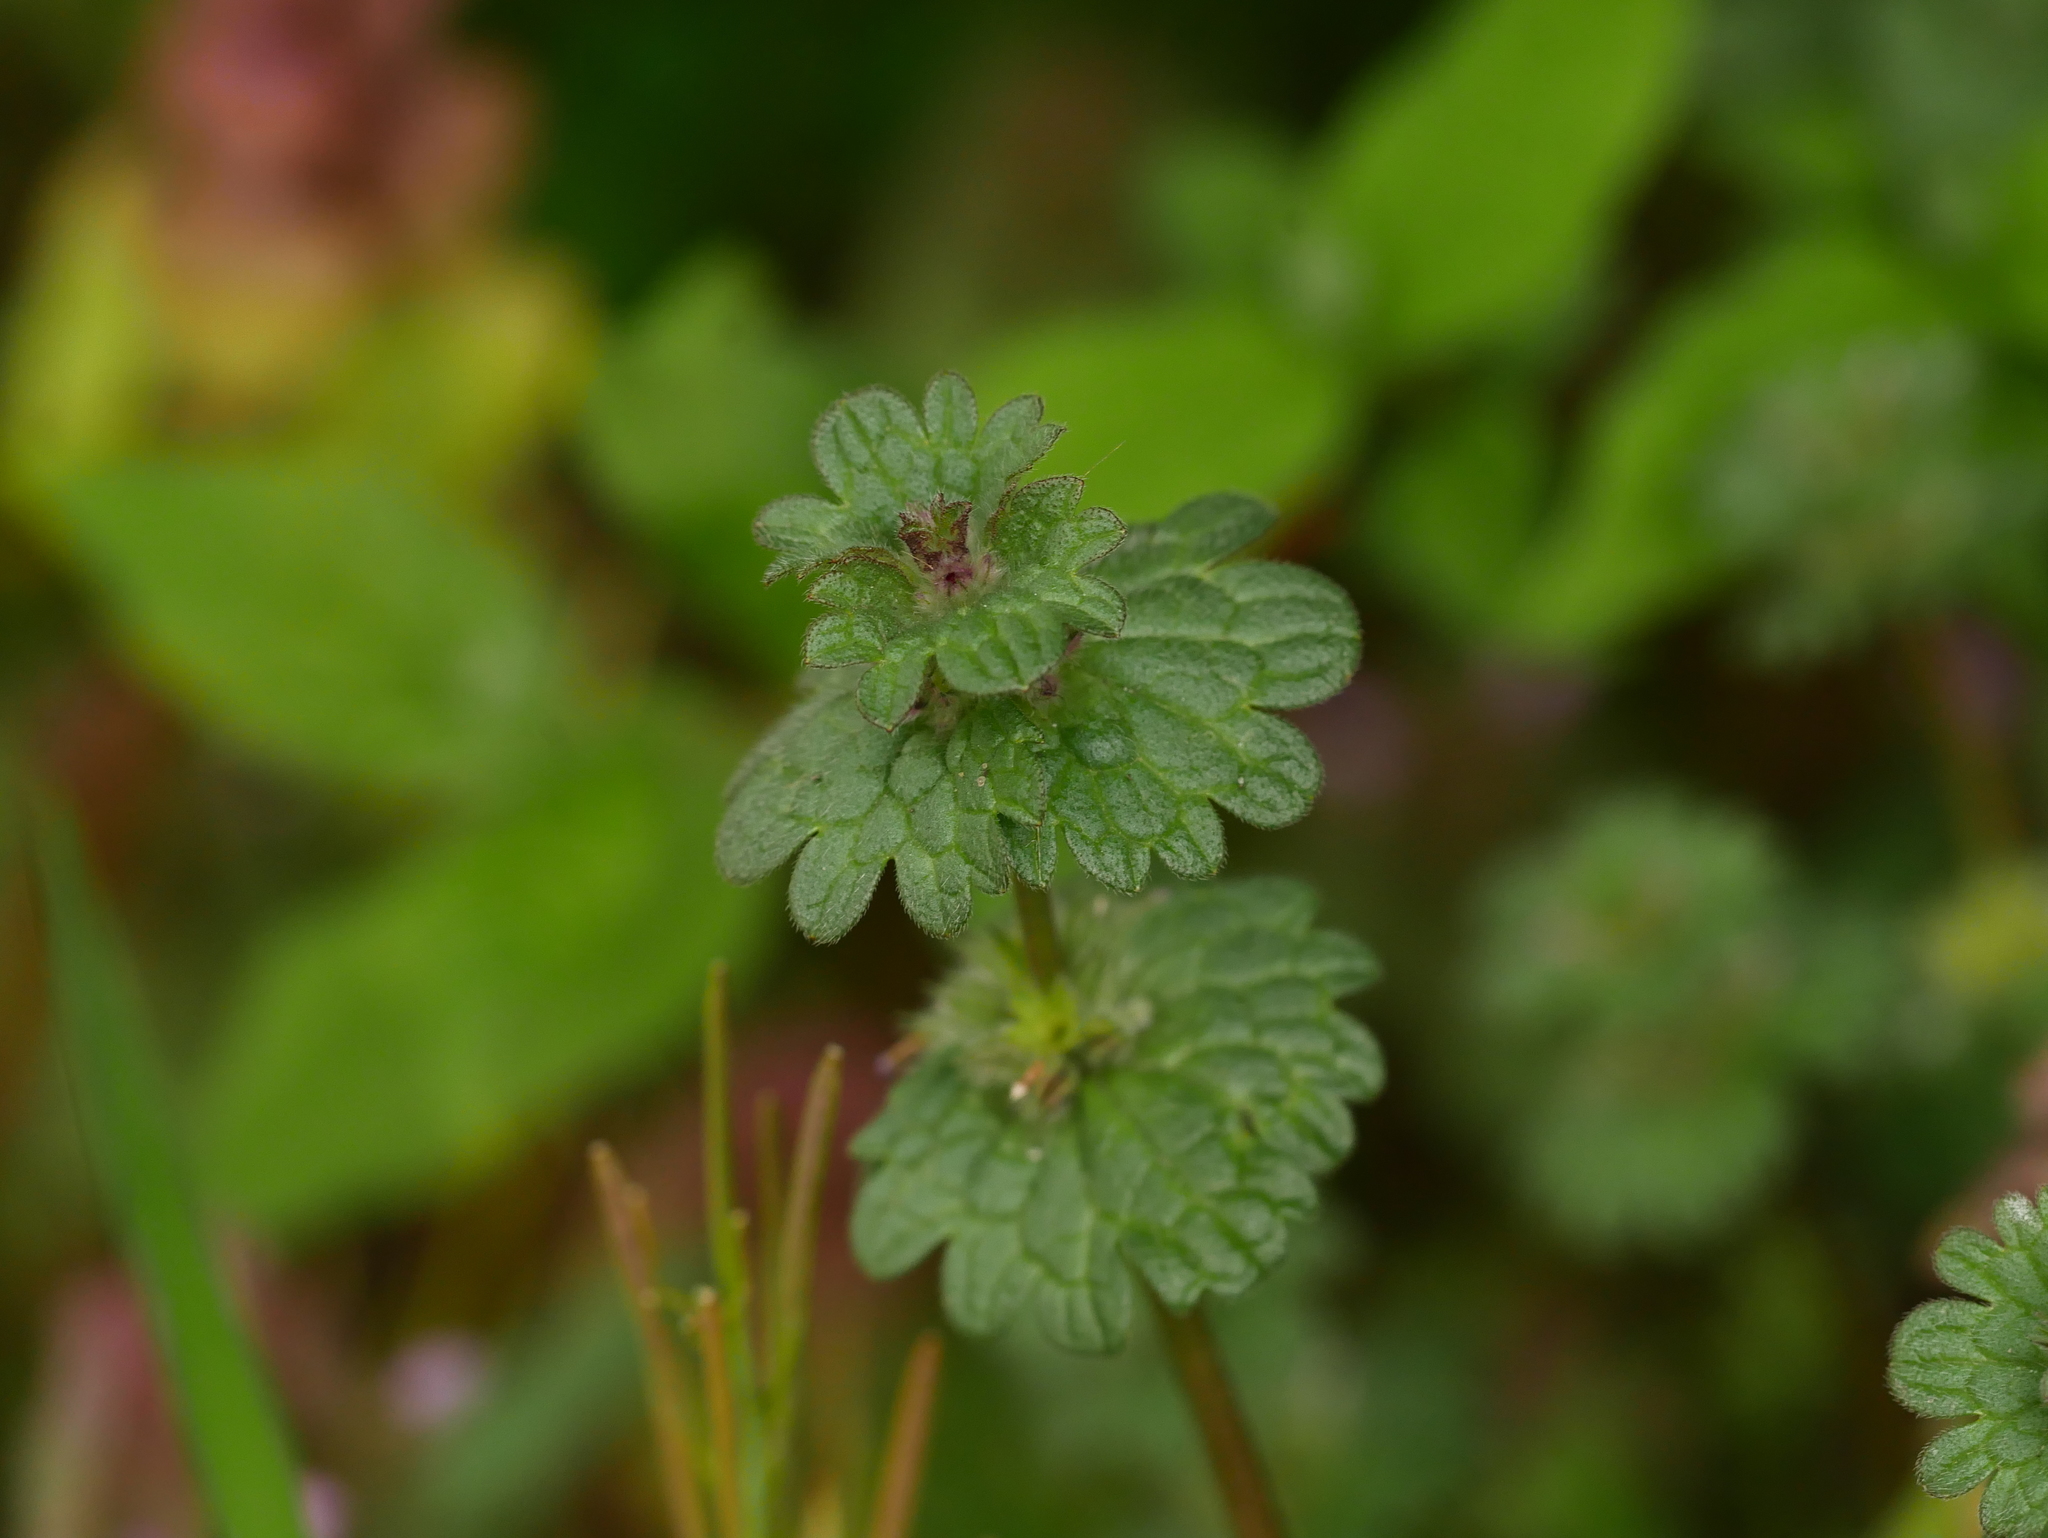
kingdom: Plantae
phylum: Tracheophyta
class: Magnoliopsida
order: Lamiales
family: Lamiaceae
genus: Lamium
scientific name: Lamium amplexicaule
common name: Henbit dead-nettle
